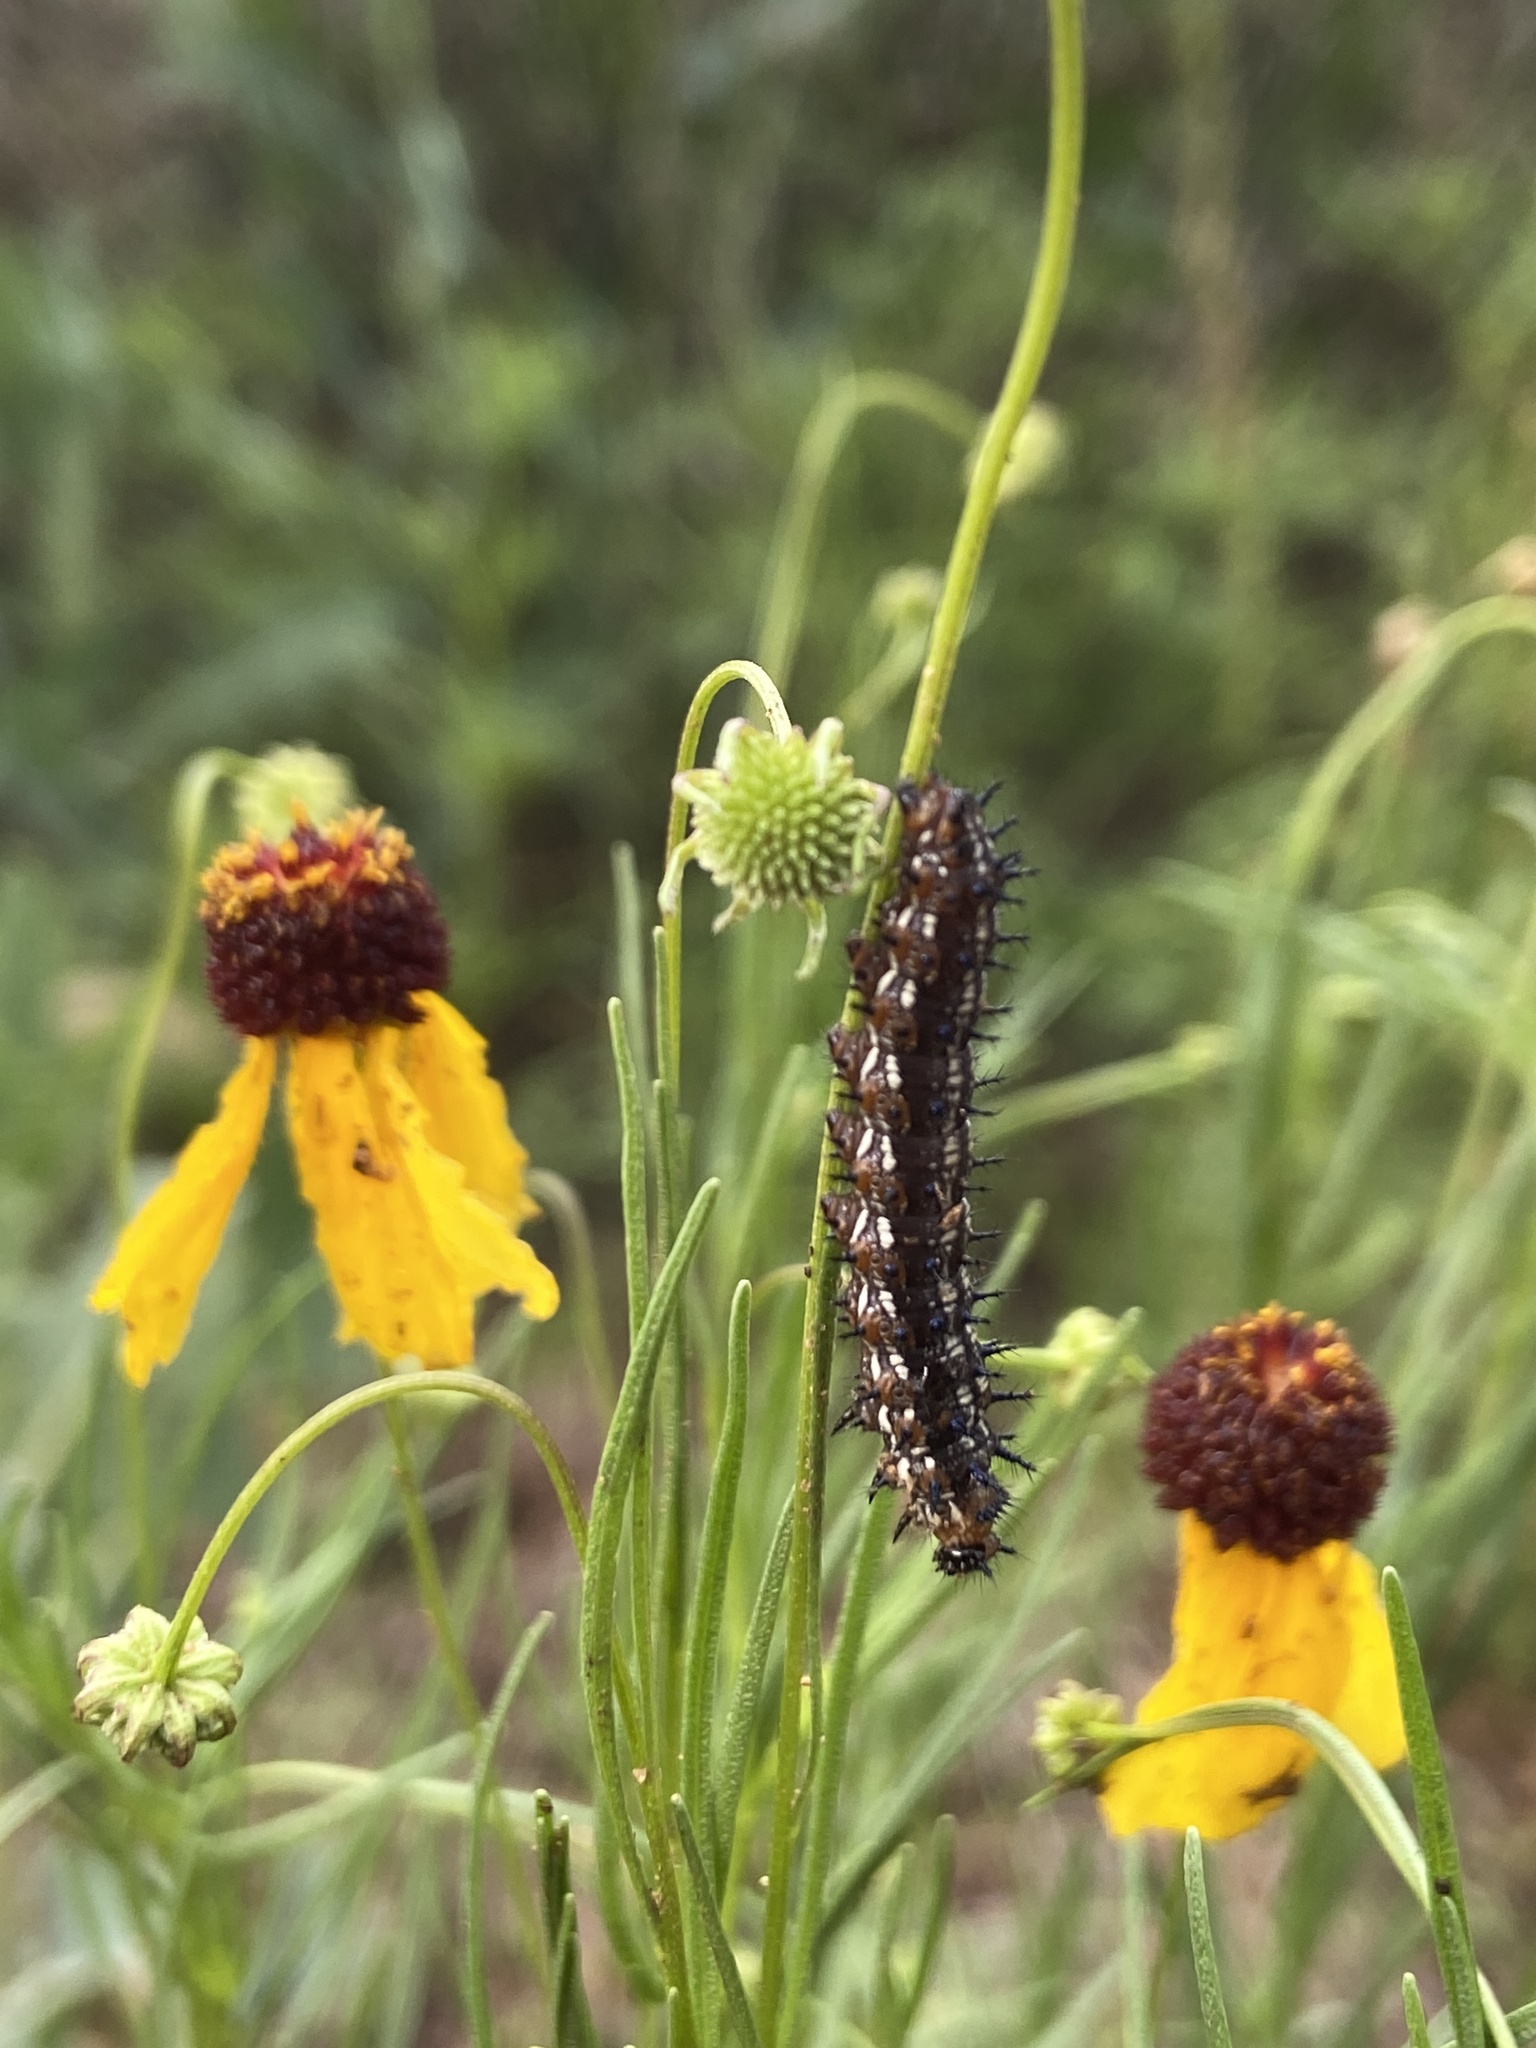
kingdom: Animalia
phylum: Arthropoda
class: Insecta
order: Lepidoptera
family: Nymphalidae
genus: Junonia
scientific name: Junonia coenia
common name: Common buckeye
